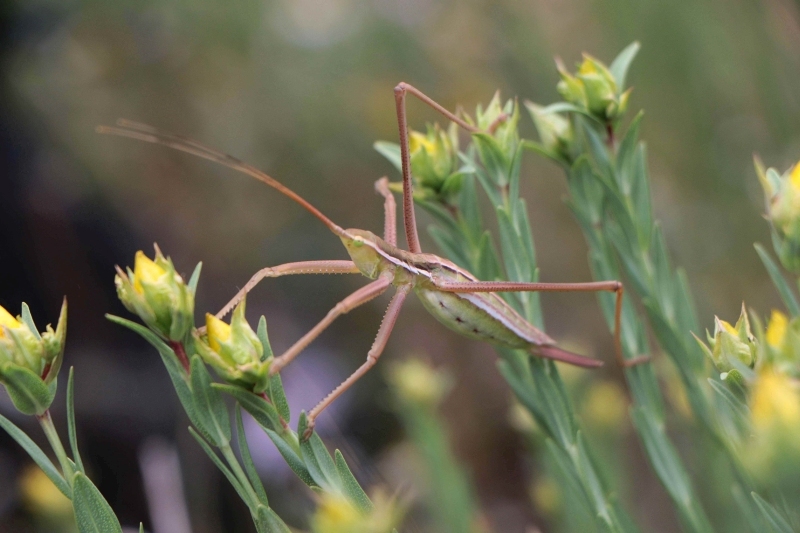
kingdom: Animalia
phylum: Arthropoda
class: Insecta
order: Orthoptera
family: Tettigoniidae
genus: Saga
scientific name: Saga gracilis
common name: Slender predatory bush-cricket
